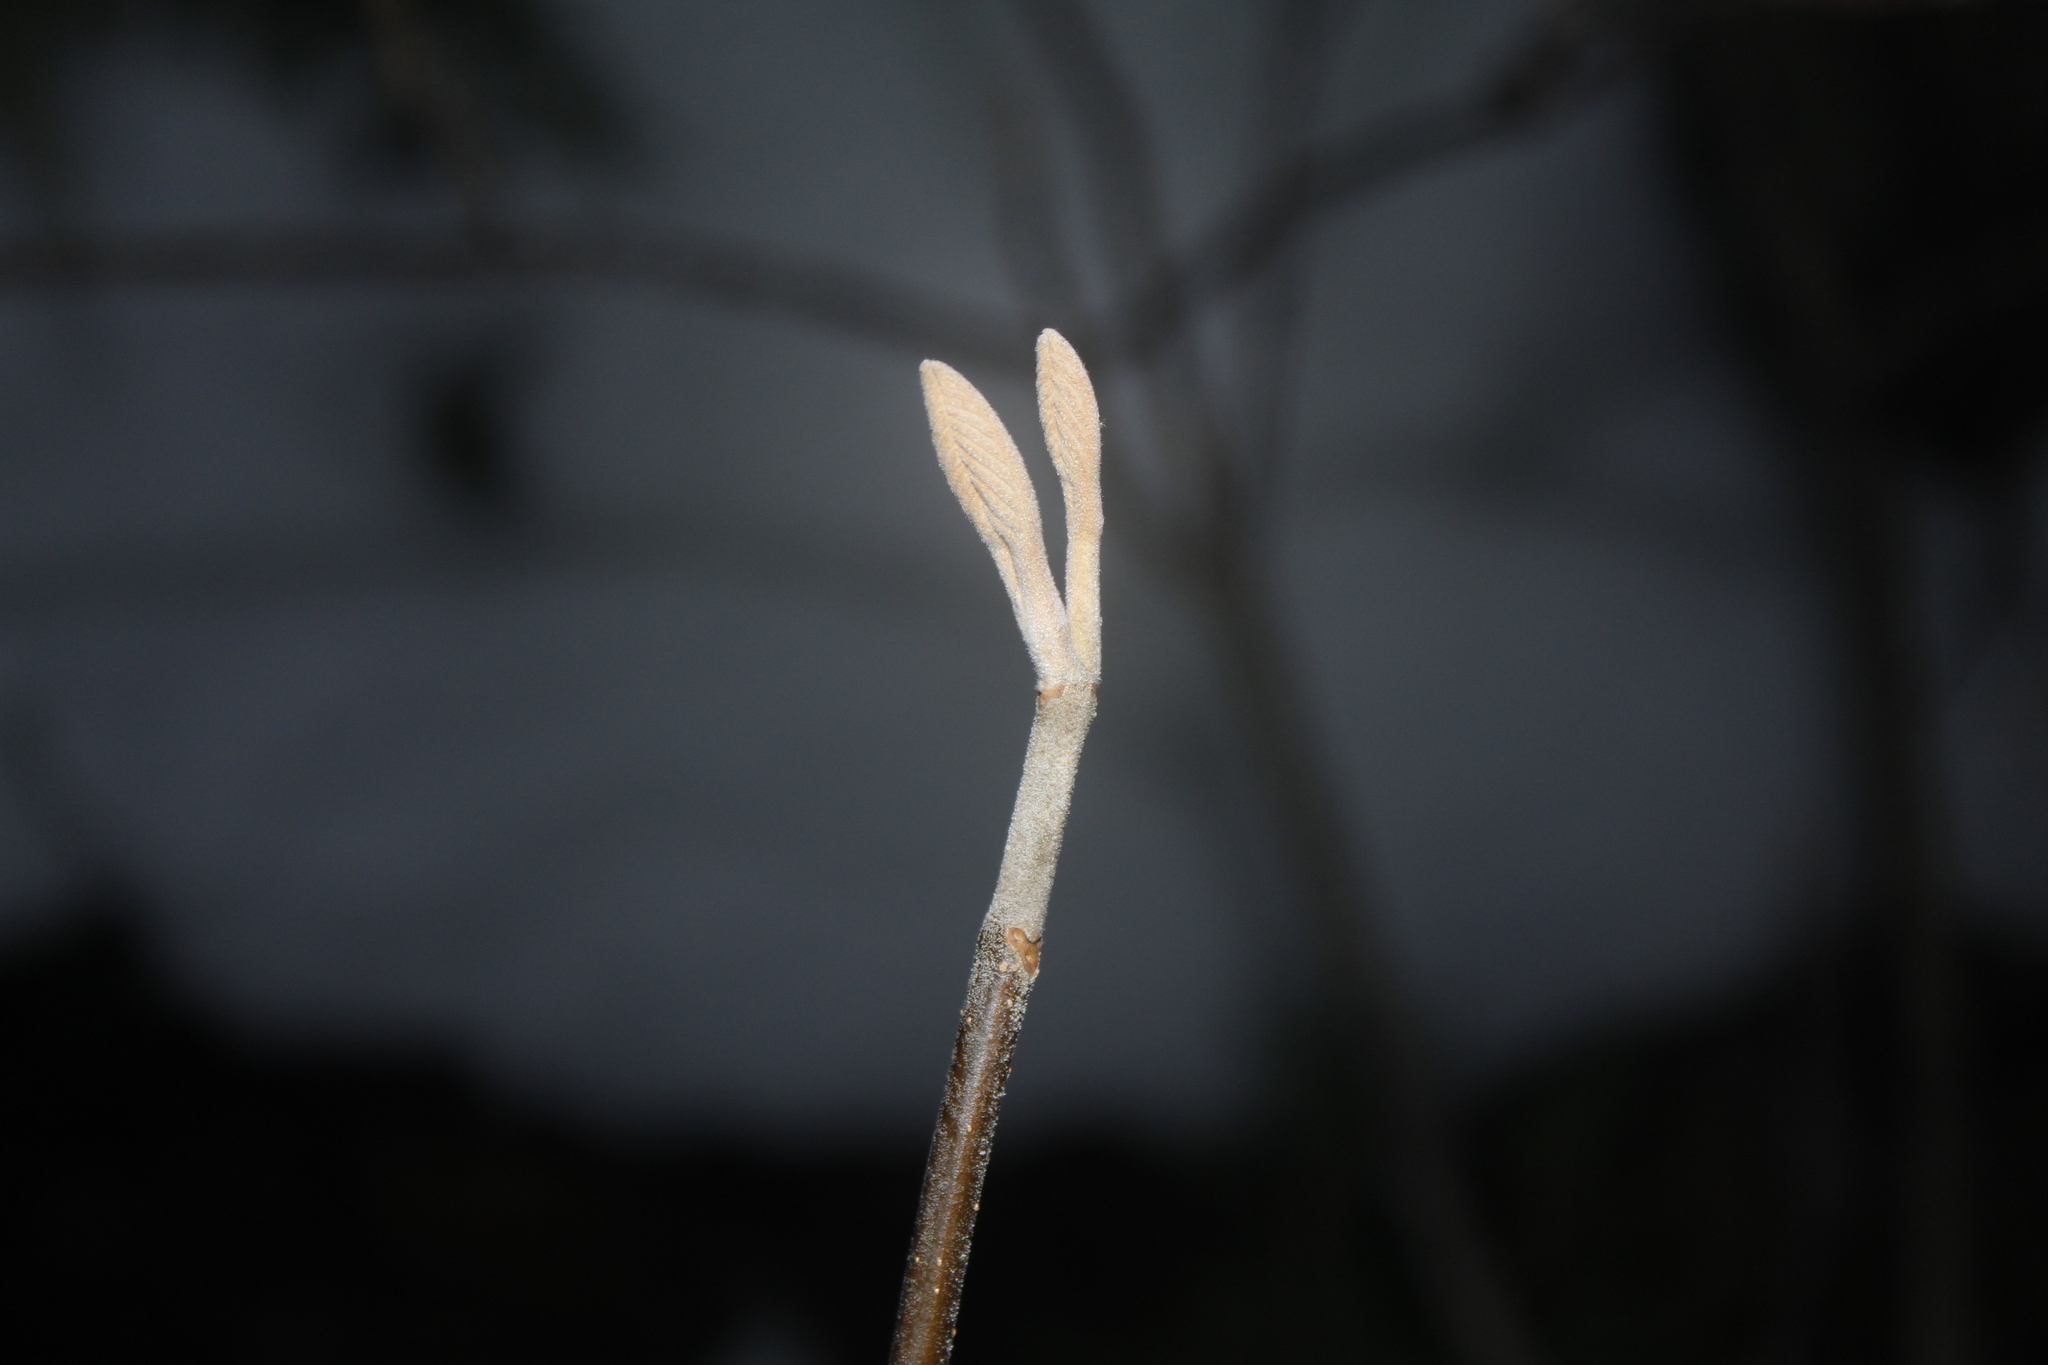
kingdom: Plantae
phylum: Tracheophyta
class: Magnoliopsida
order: Dipsacales
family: Viburnaceae
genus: Viburnum
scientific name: Viburnum lantanoides
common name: Hobblebush
